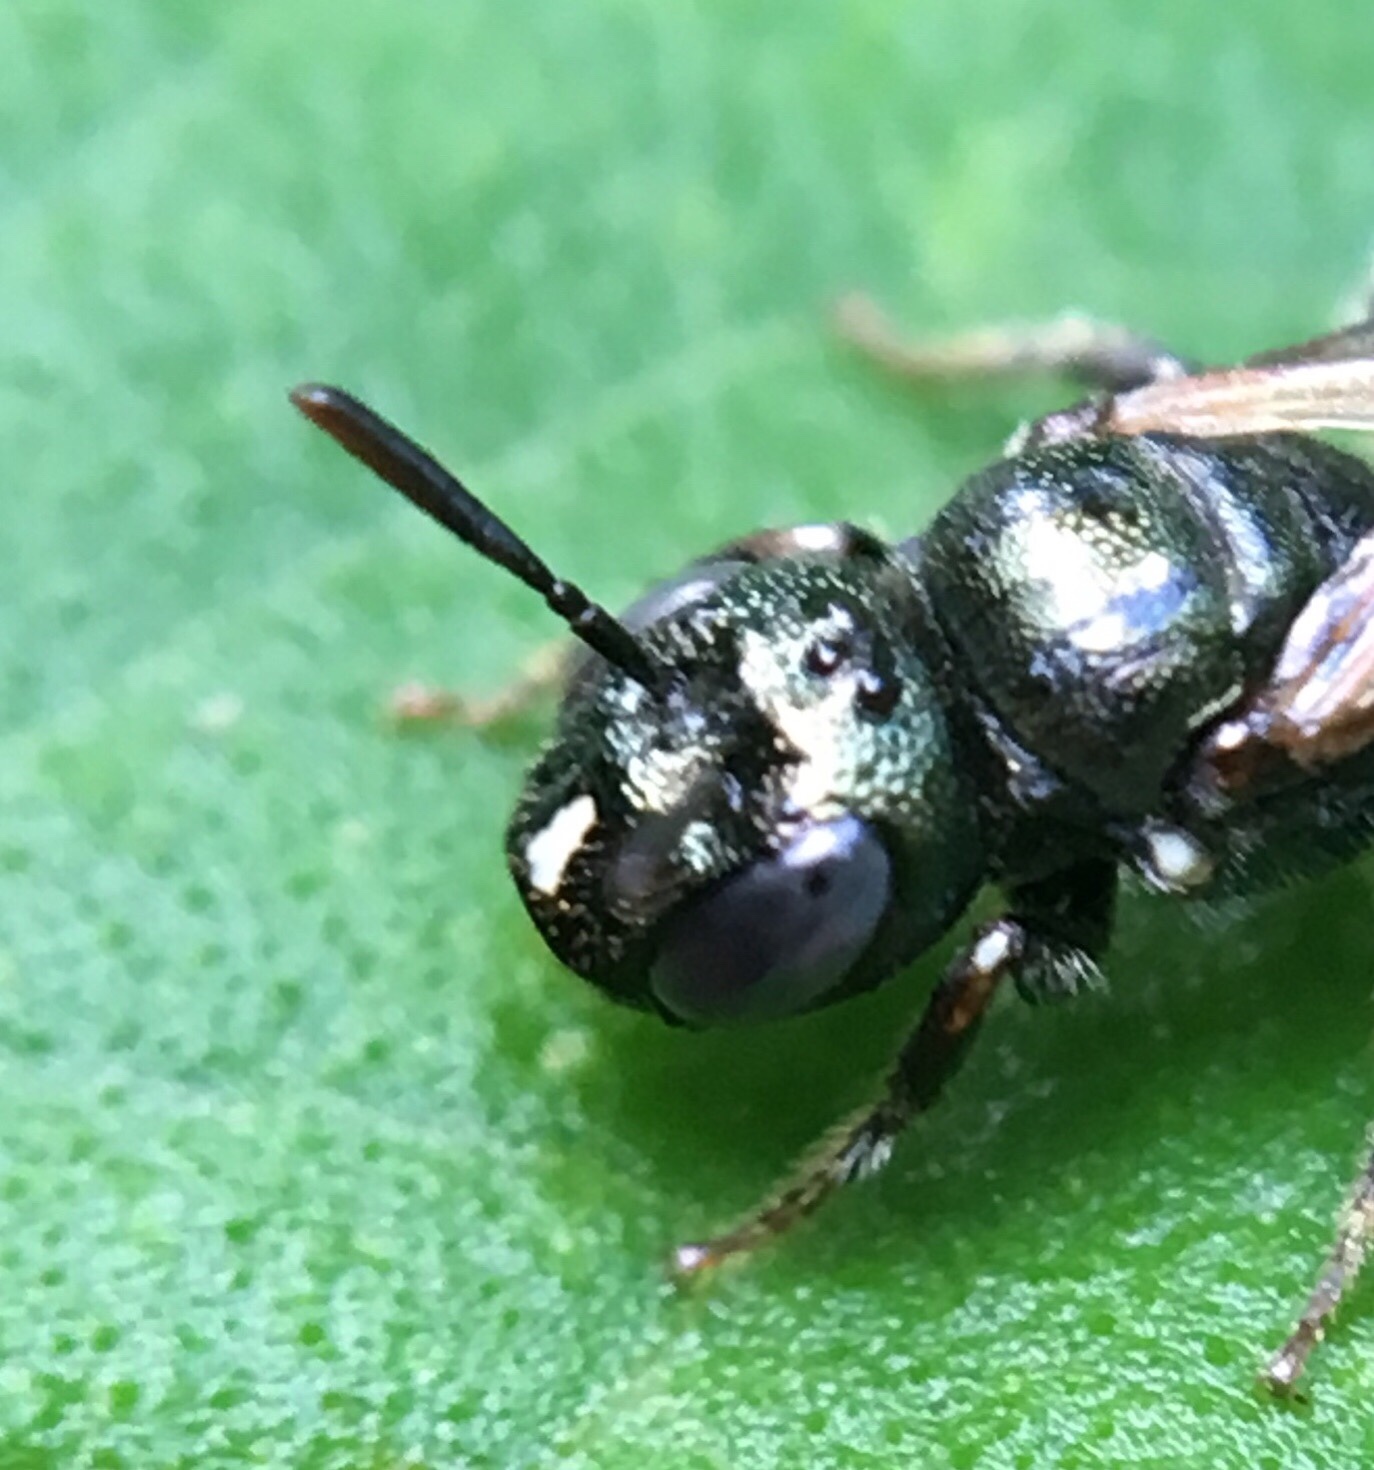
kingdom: Animalia
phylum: Arthropoda
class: Insecta
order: Hymenoptera
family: Apidae
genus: Ceratina
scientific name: Ceratina strenua
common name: Nimble carpenter bee
